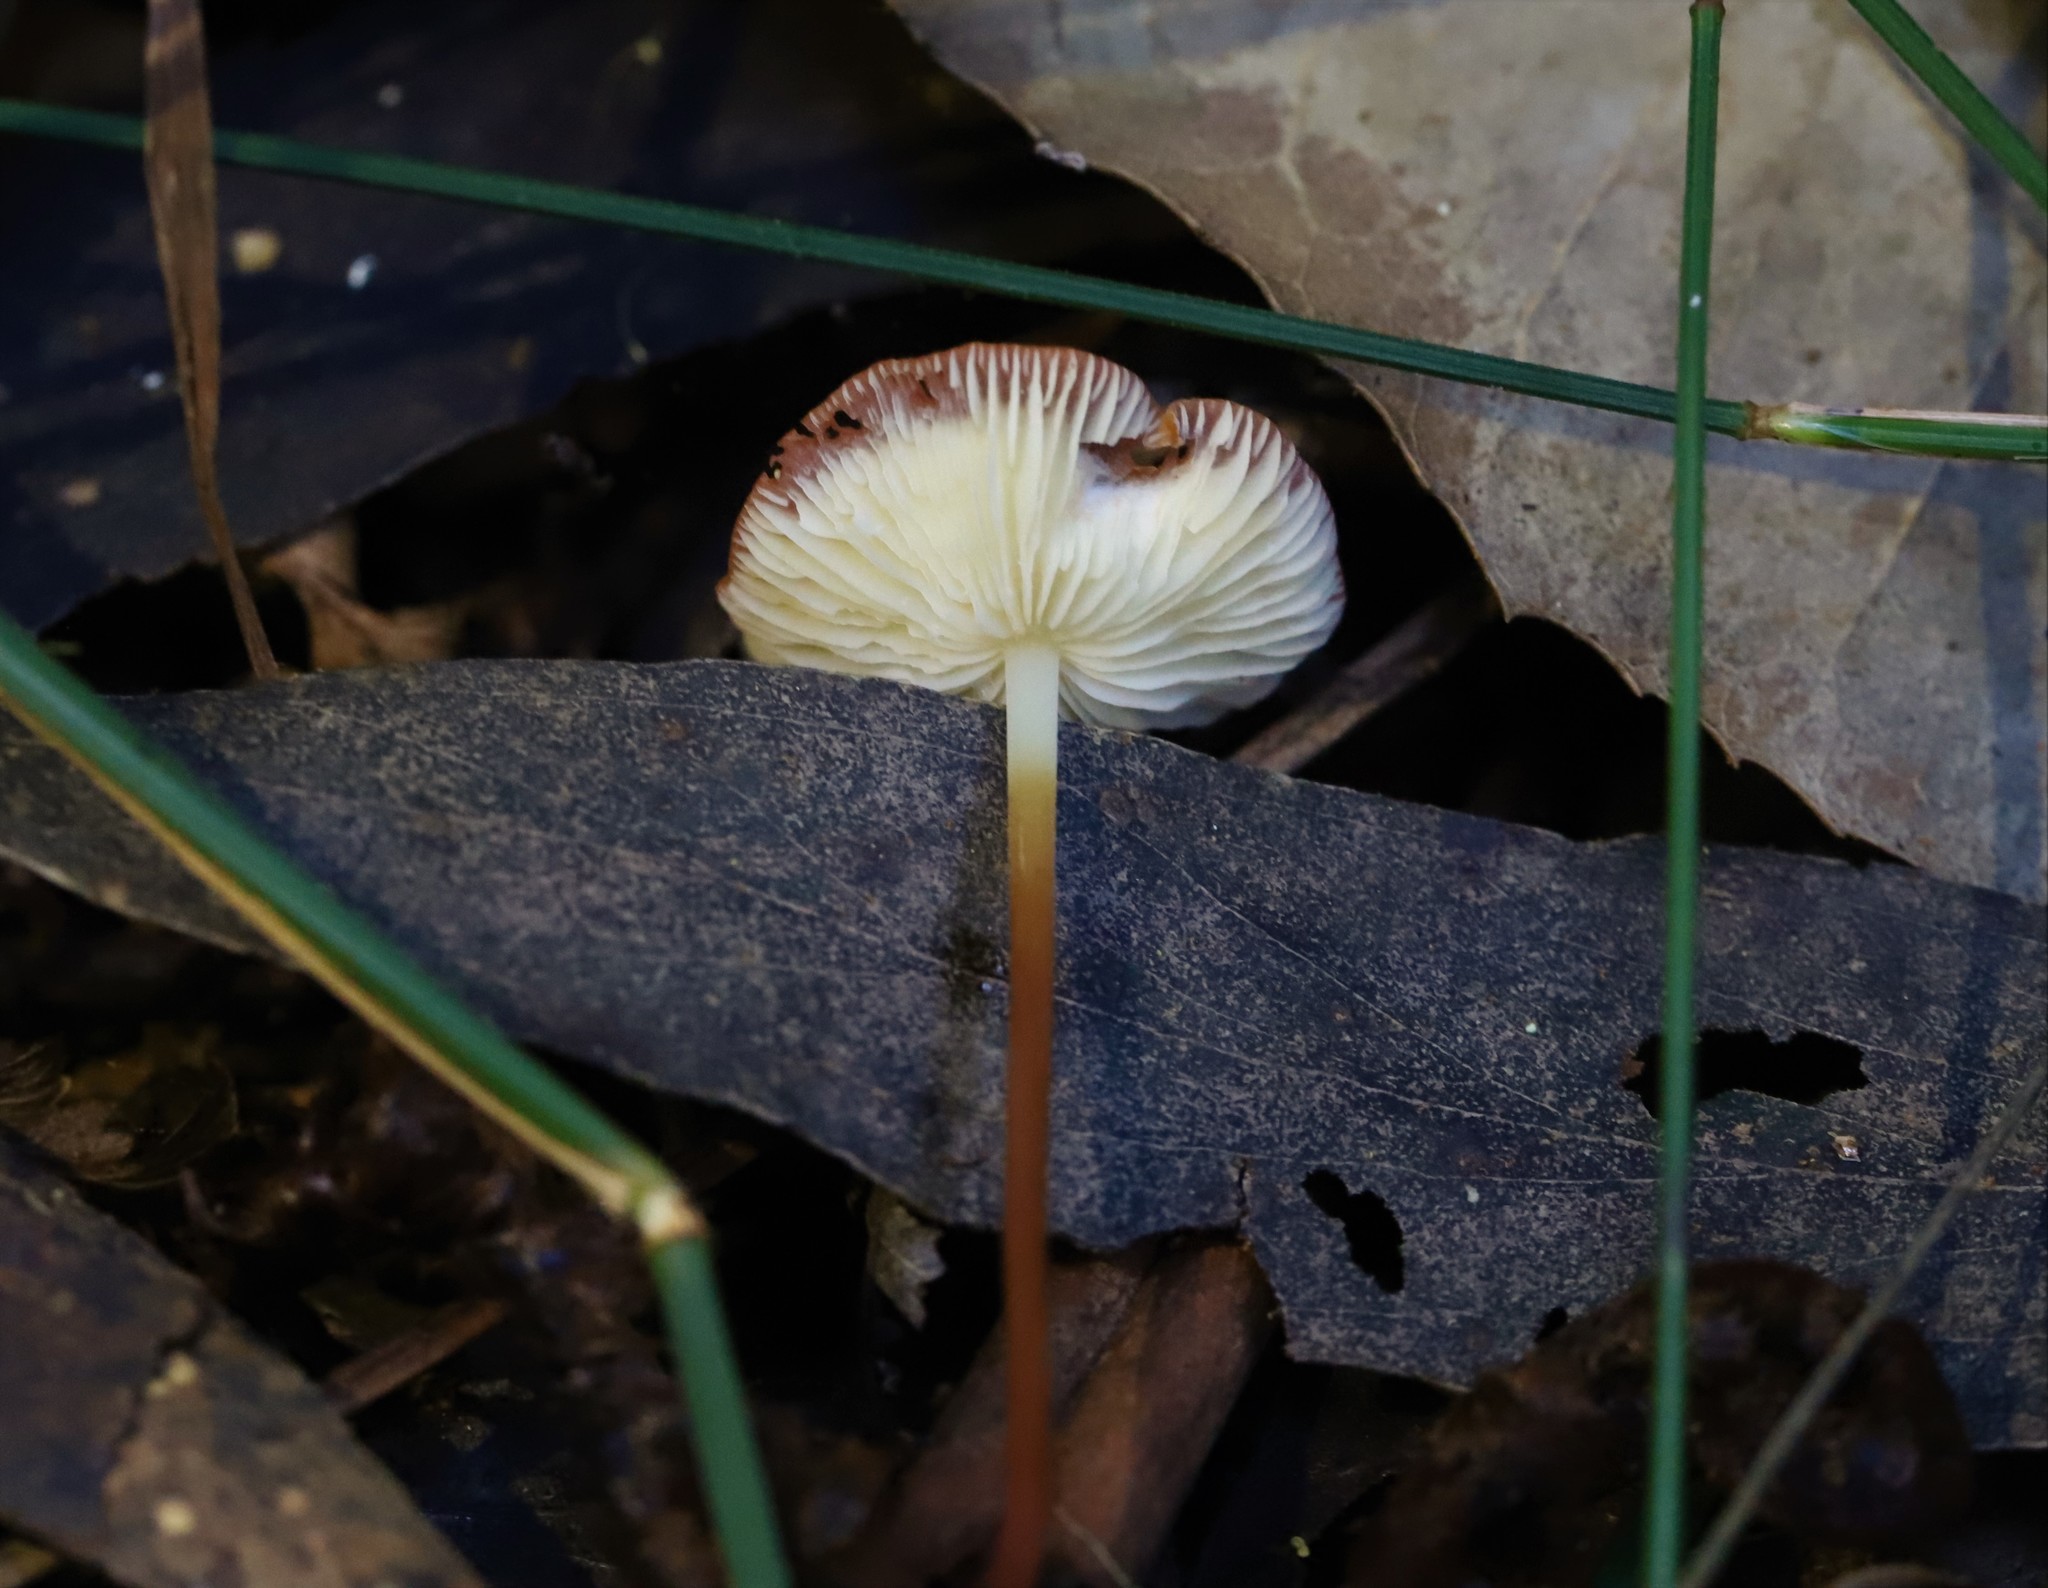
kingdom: Fungi
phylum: Basidiomycota
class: Agaricomycetes
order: Agaricales
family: Marasmiaceae
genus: Marasmius
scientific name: Marasmius elegans
